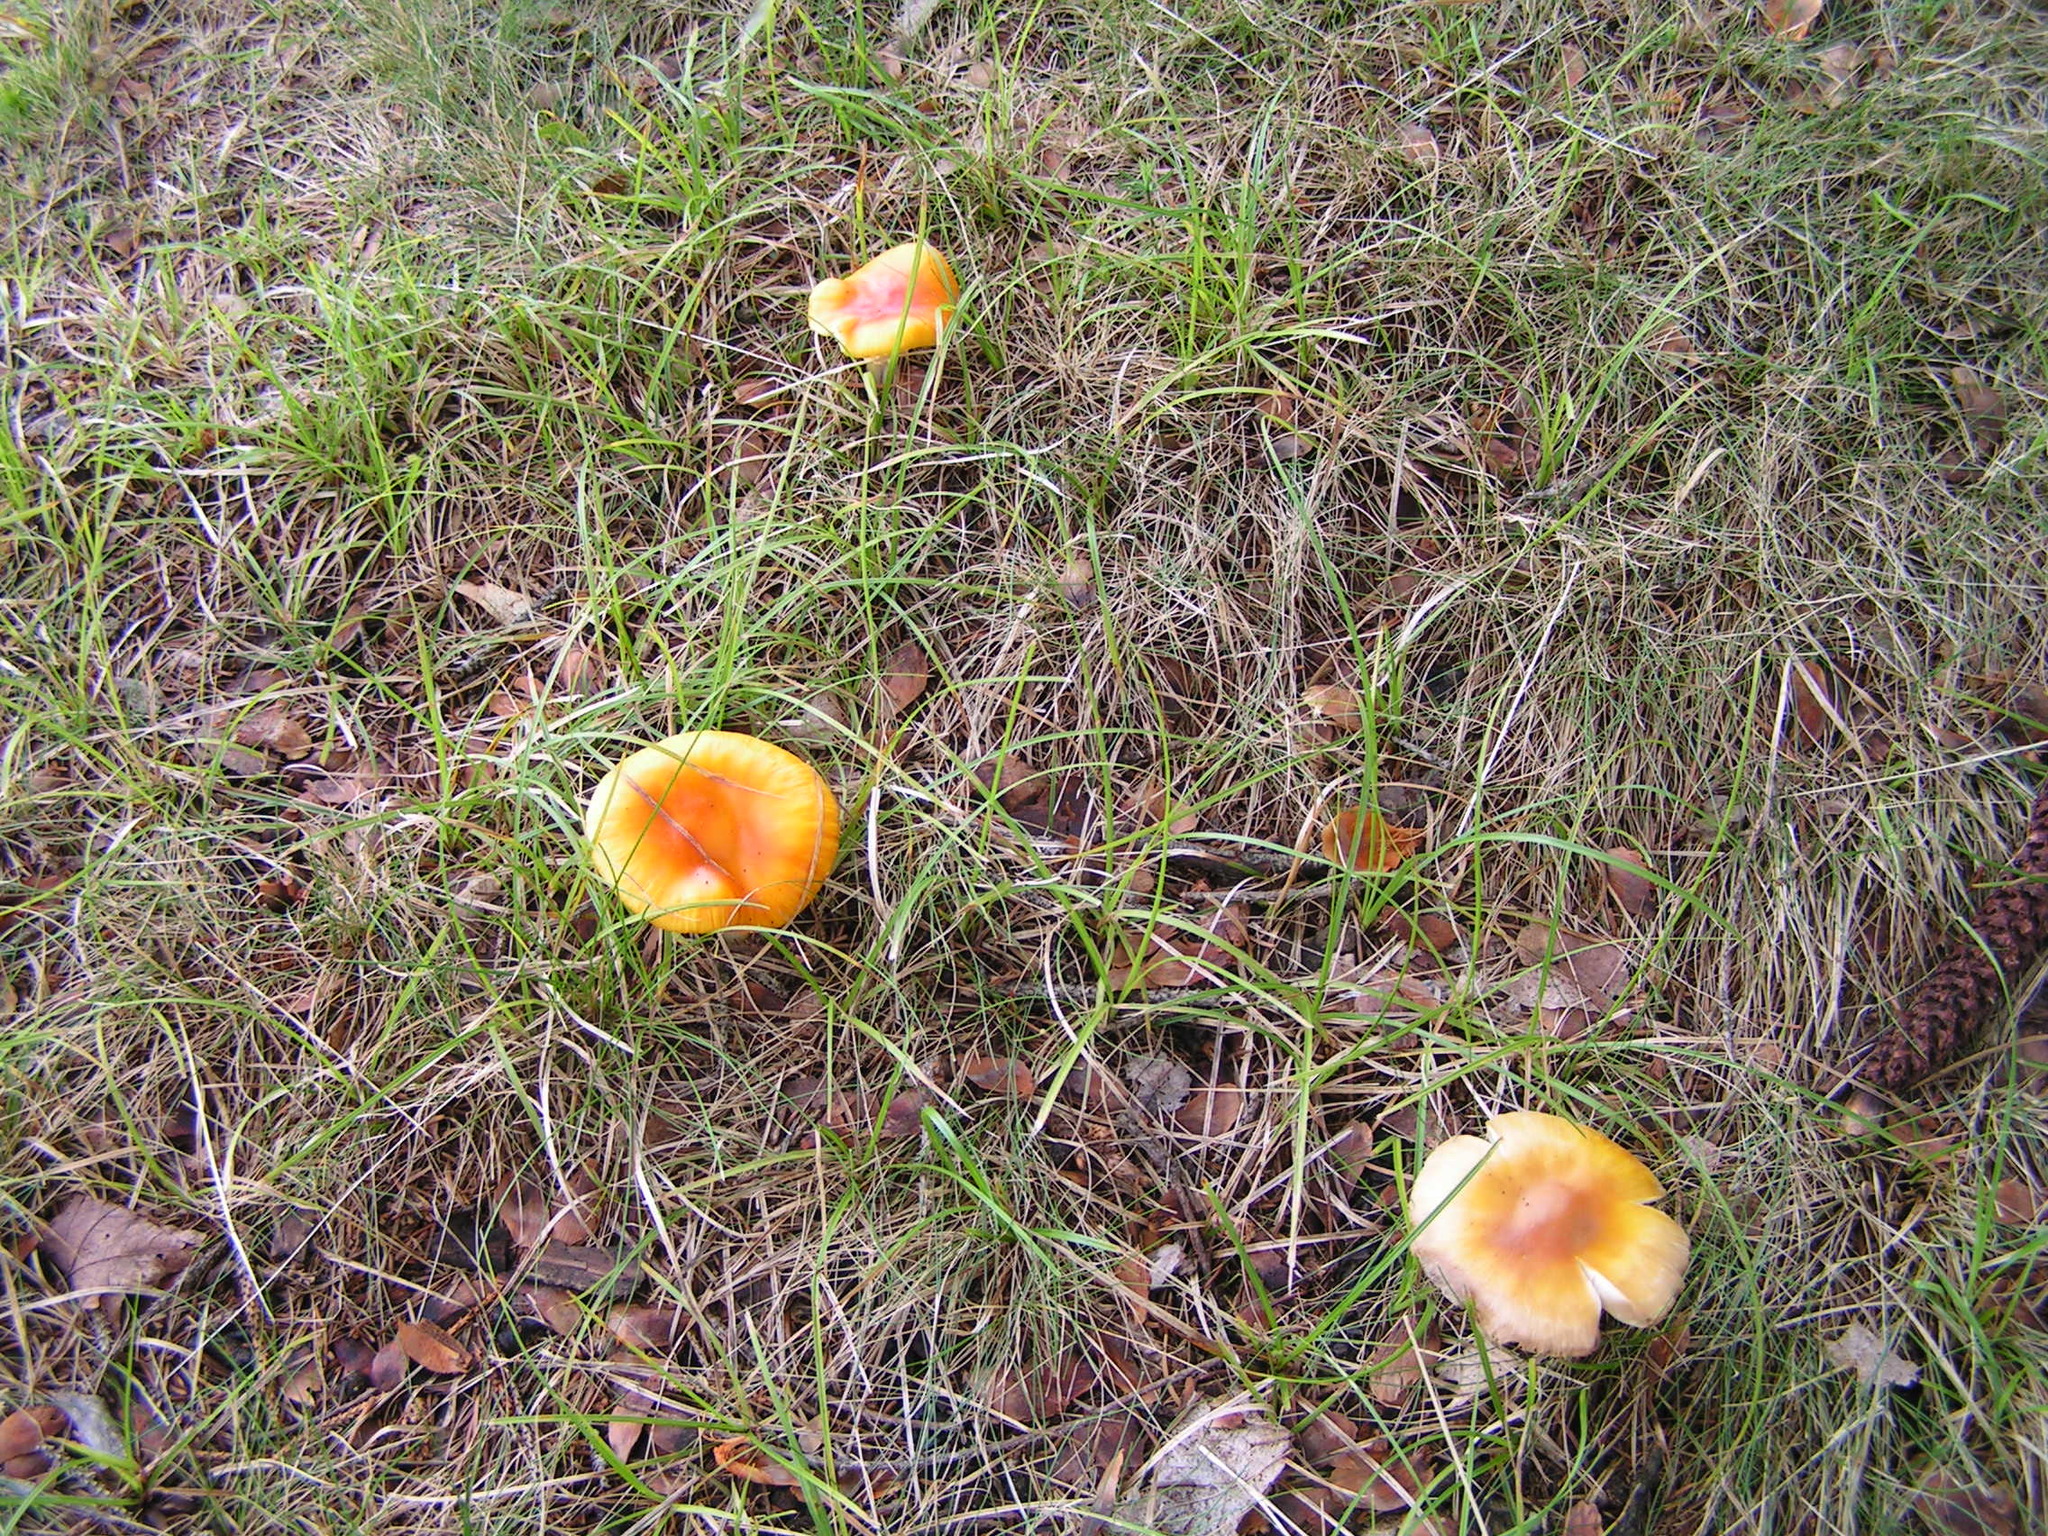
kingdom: Fungi
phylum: Basidiomycota
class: Agaricomycetes
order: Agaricales
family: Amanitaceae
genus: Amanita
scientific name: Amanita flavoconia
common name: Yellow patches
